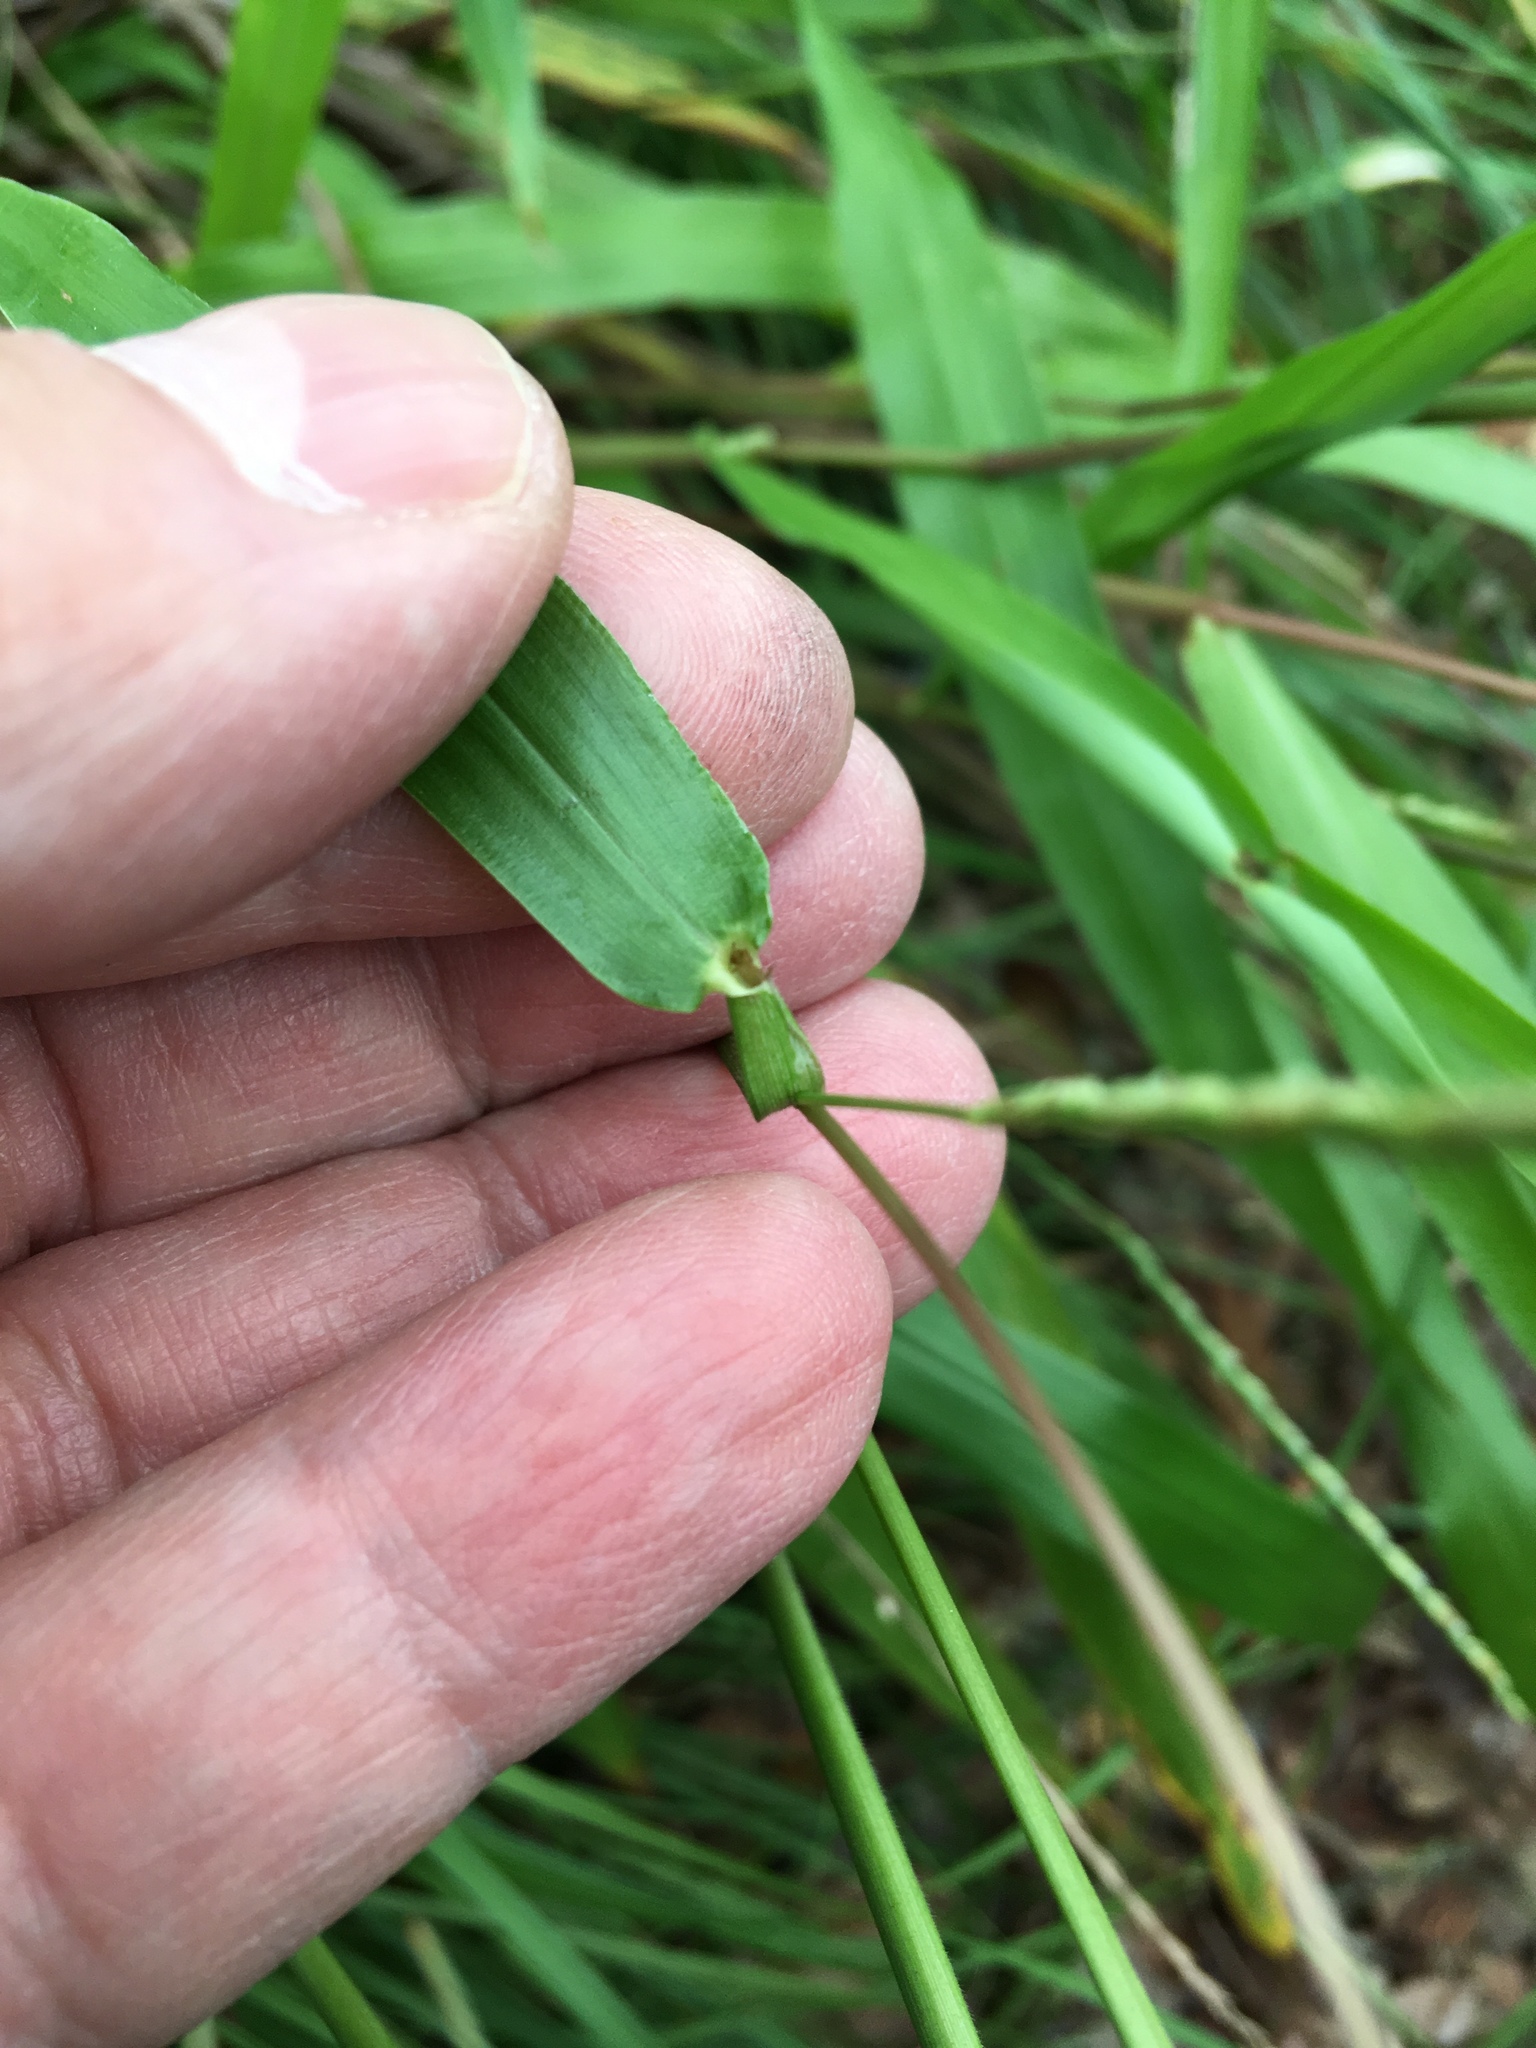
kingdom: Plantae
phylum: Tracheophyta
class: Liliopsida
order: Poales
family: Poaceae
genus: Paspalum
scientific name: Paspalum langei
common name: Rusty-seed paspalum
